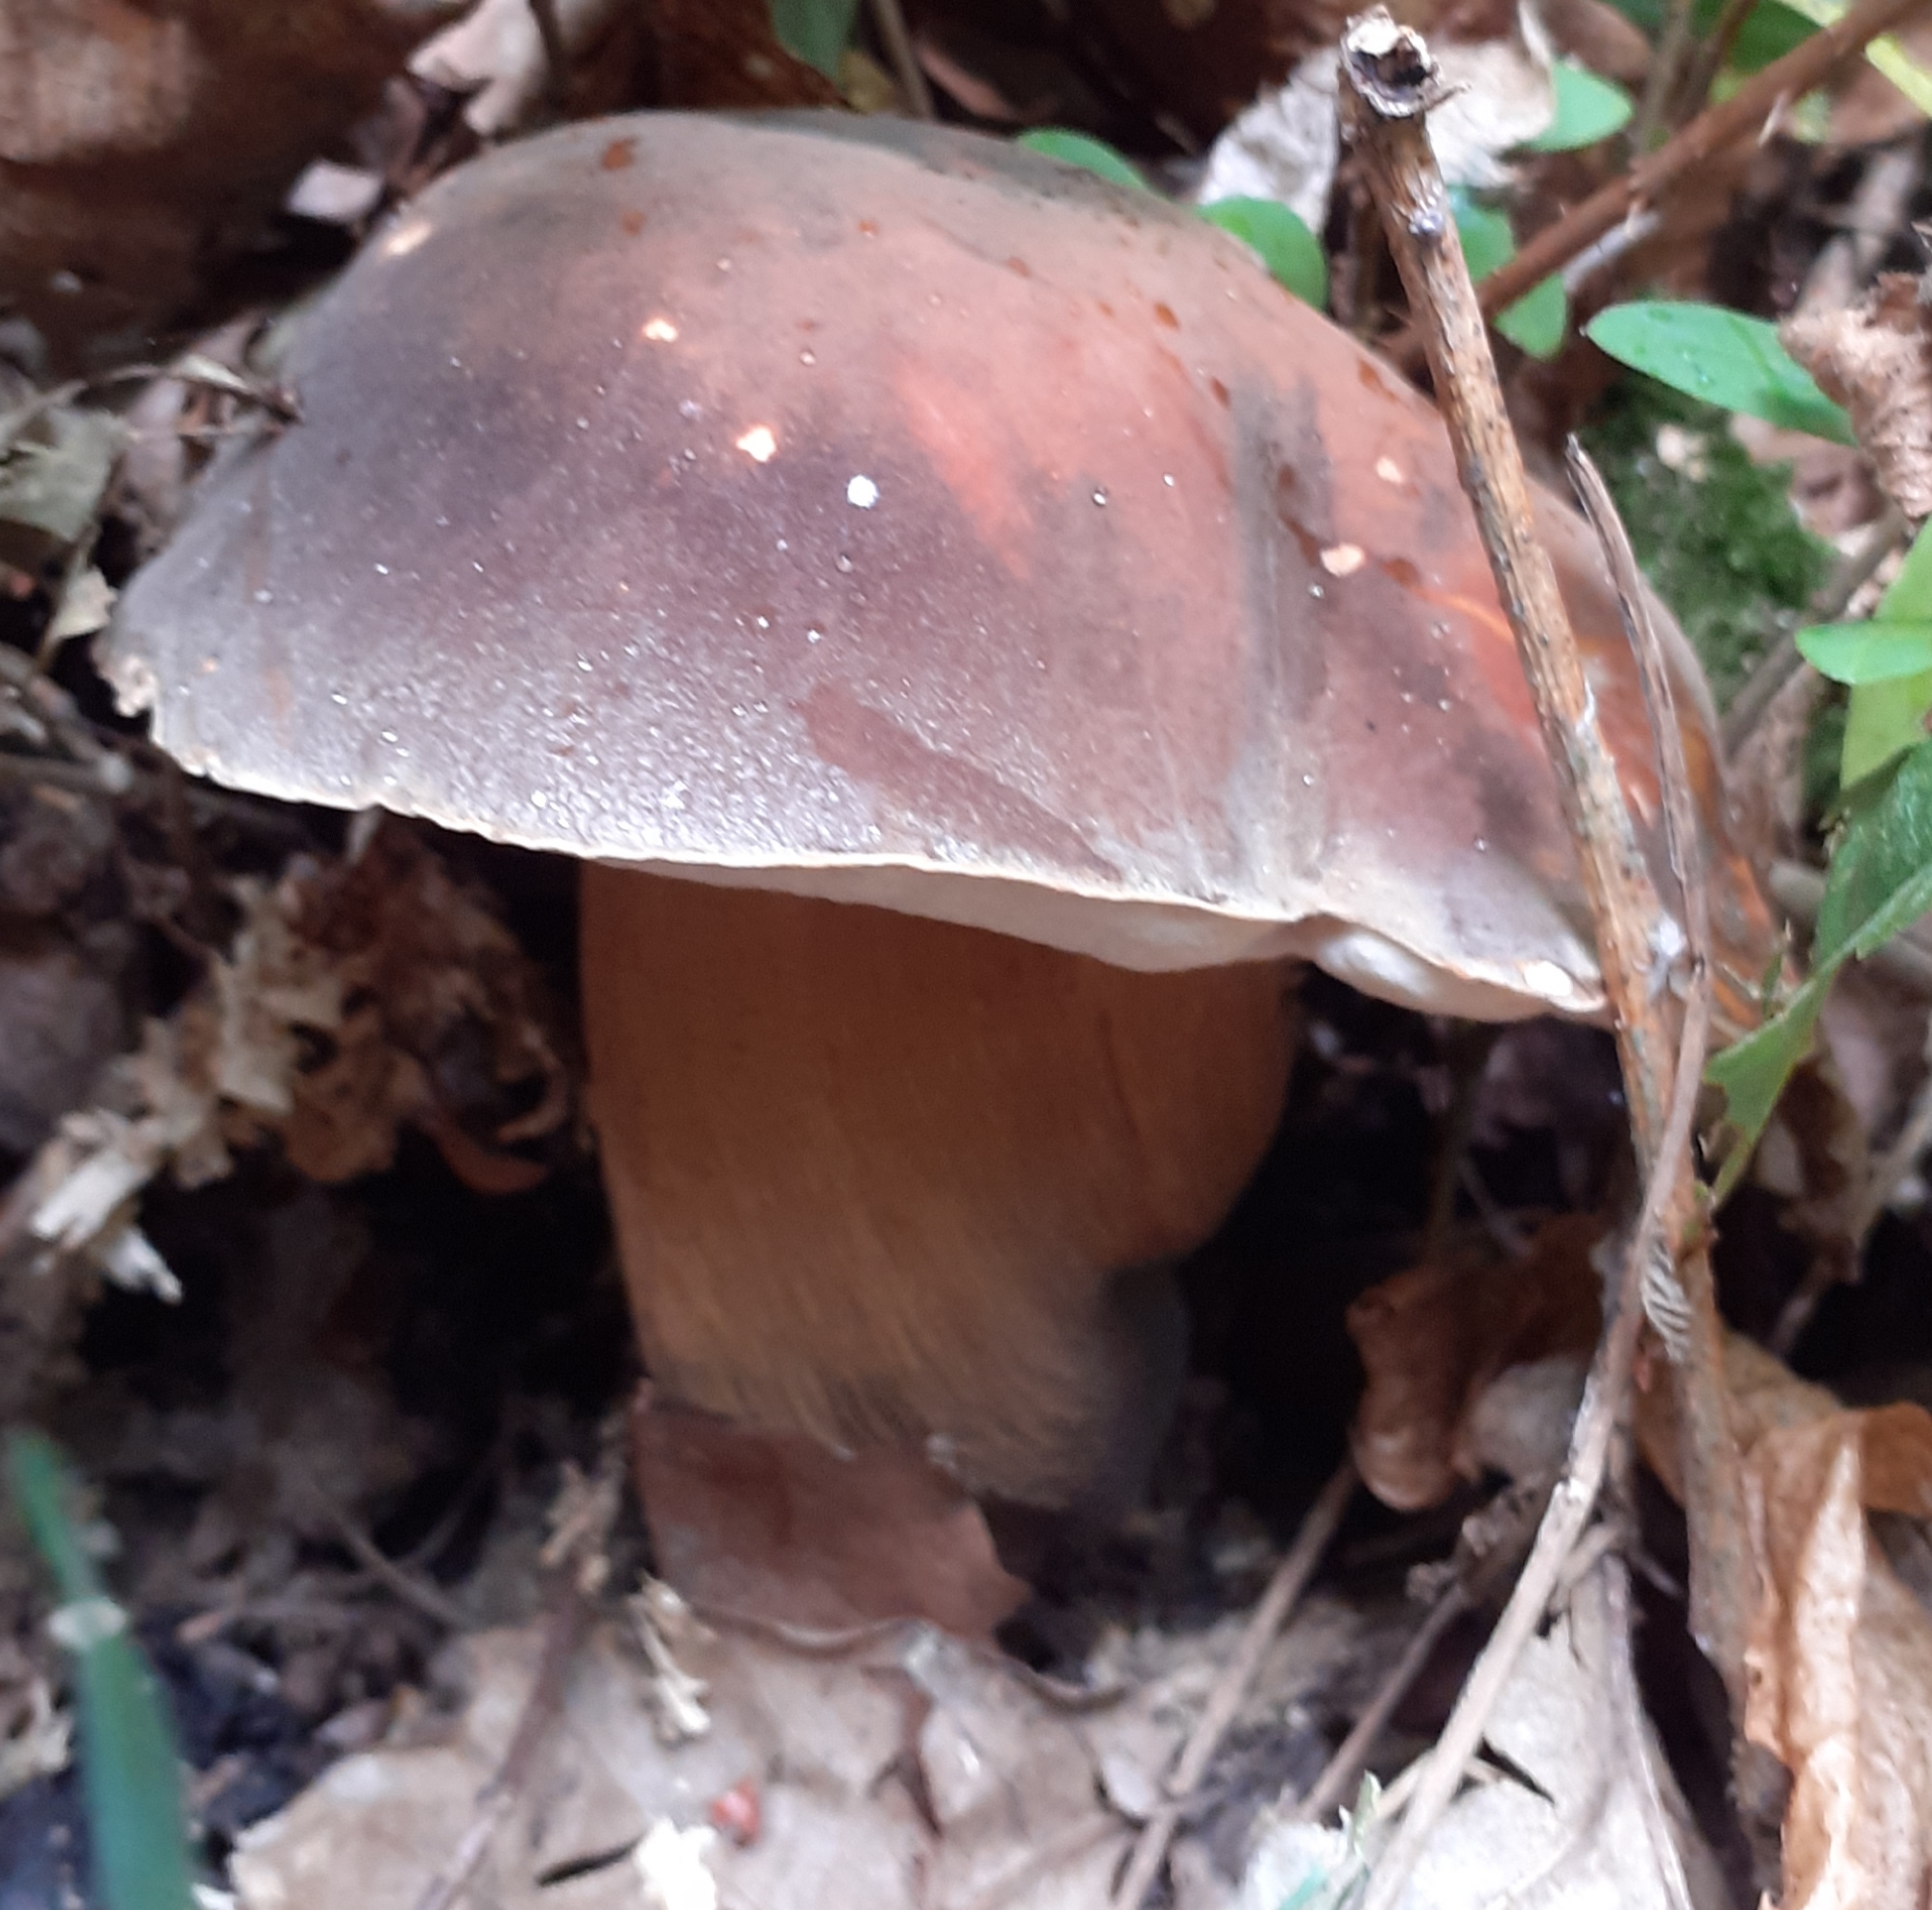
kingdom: Fungi
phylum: Basidiomycota
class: Agaricomycetes
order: Boletales
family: Boletaceae
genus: Boletus
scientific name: Boletus aereus
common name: Bronze bolete
